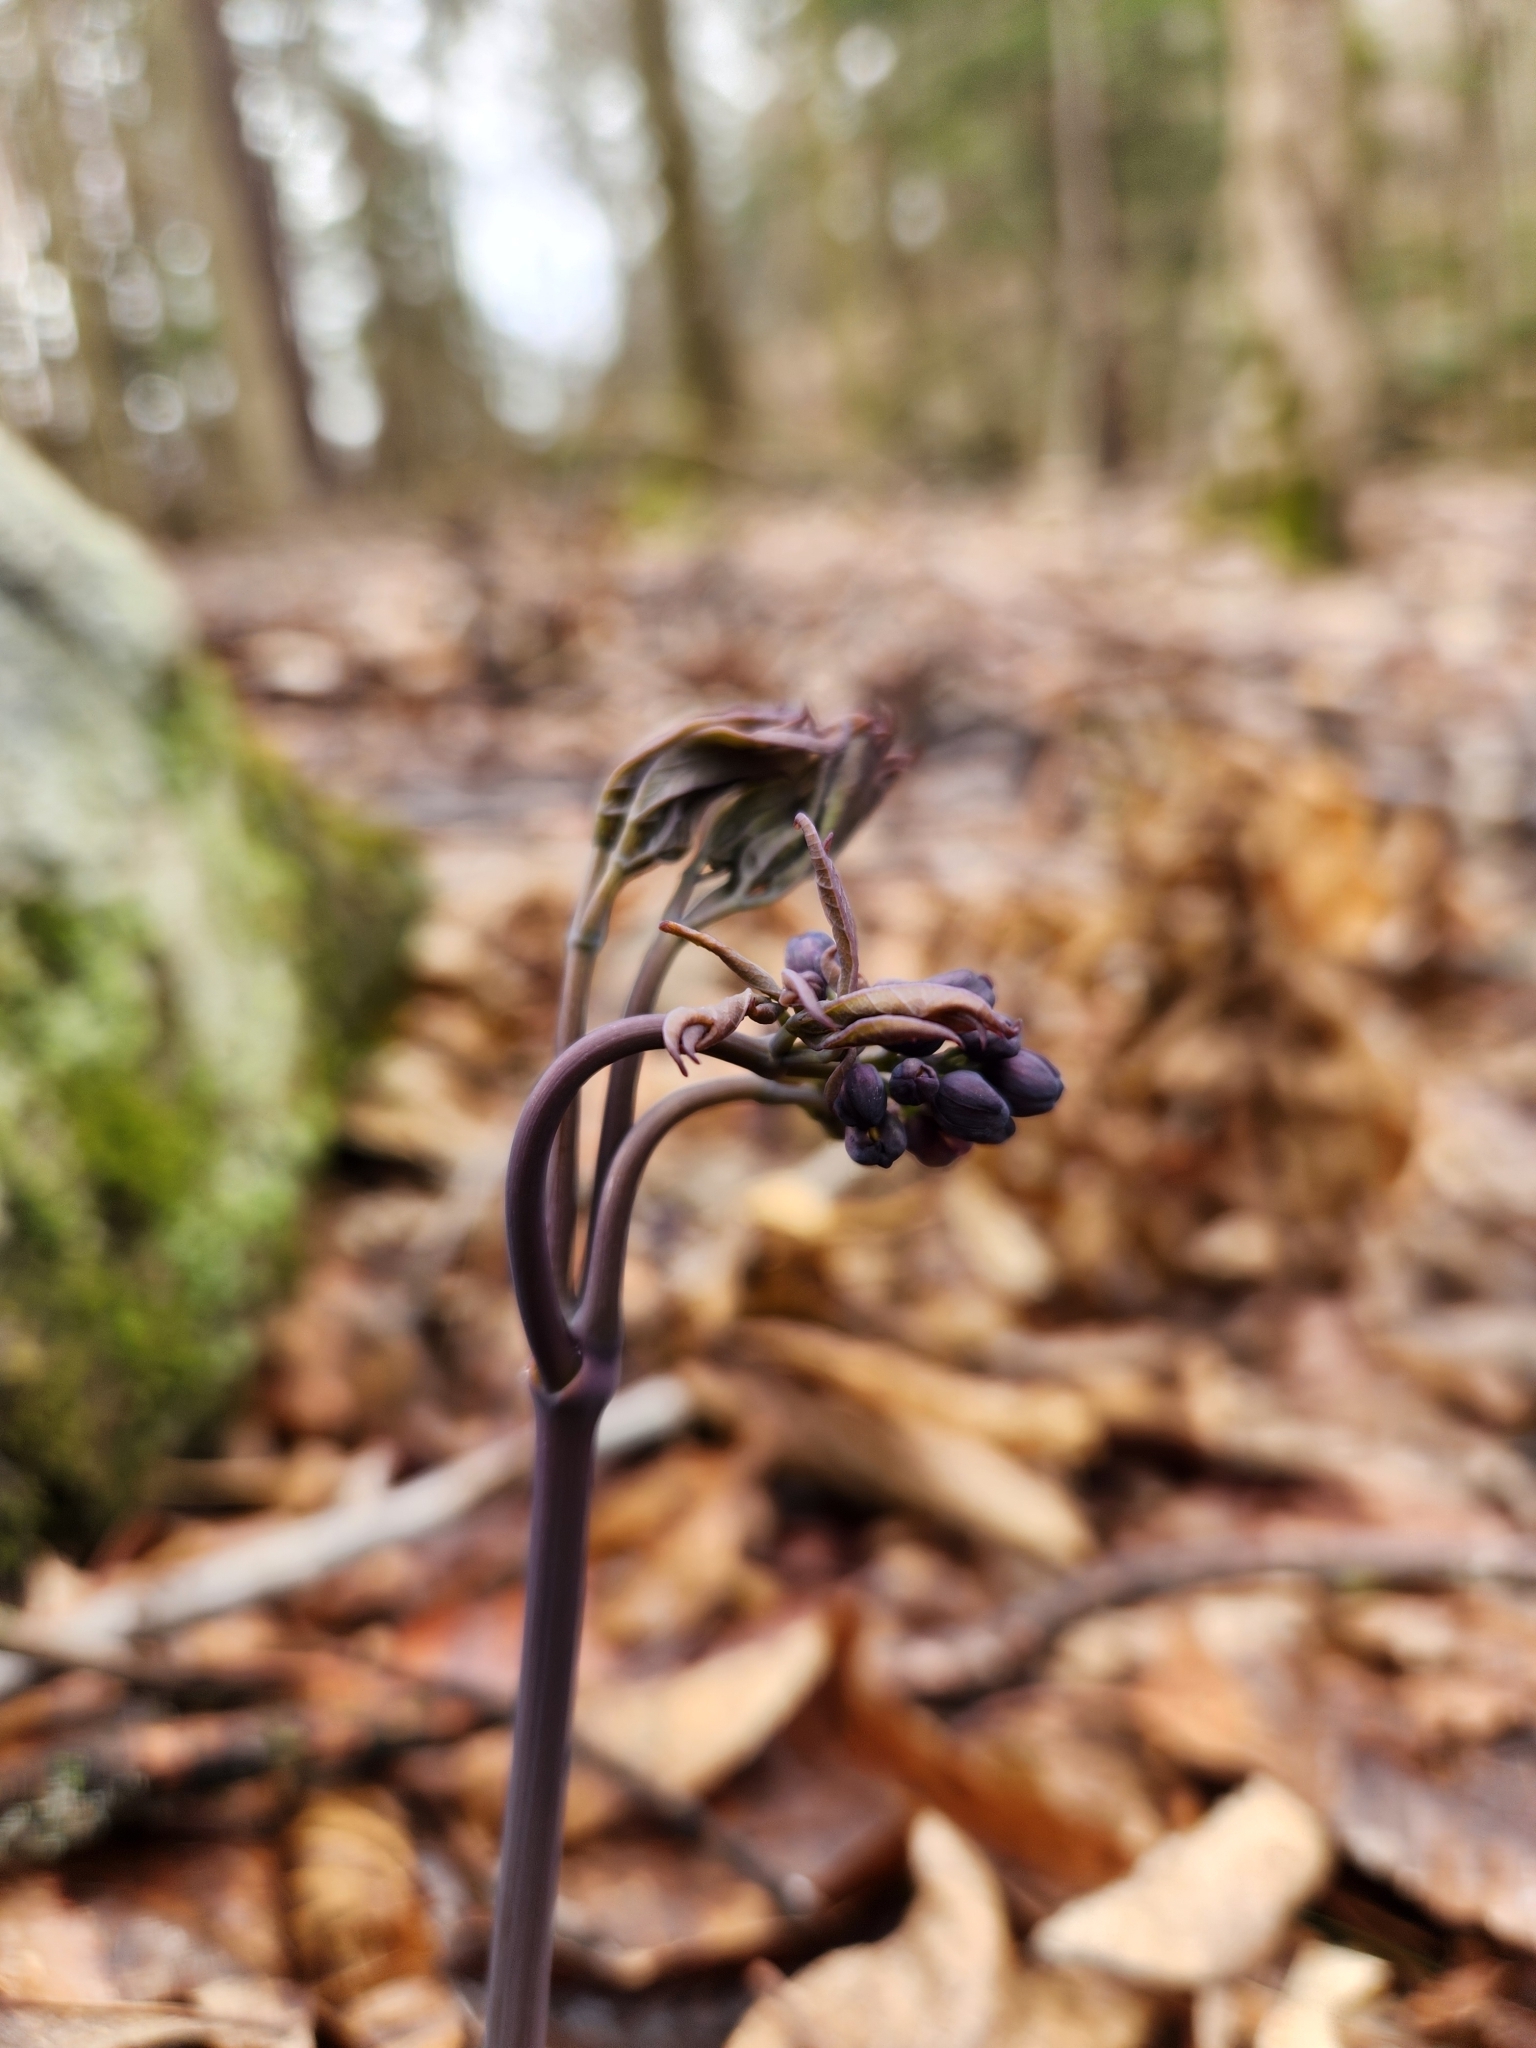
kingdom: Plantae
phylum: Tracheophyta
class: Magnoliopsida
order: Ranunculales
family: Berberidaceae
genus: Caulophyllum
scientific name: Caulophyllum giganteum
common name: Blue cohosh
